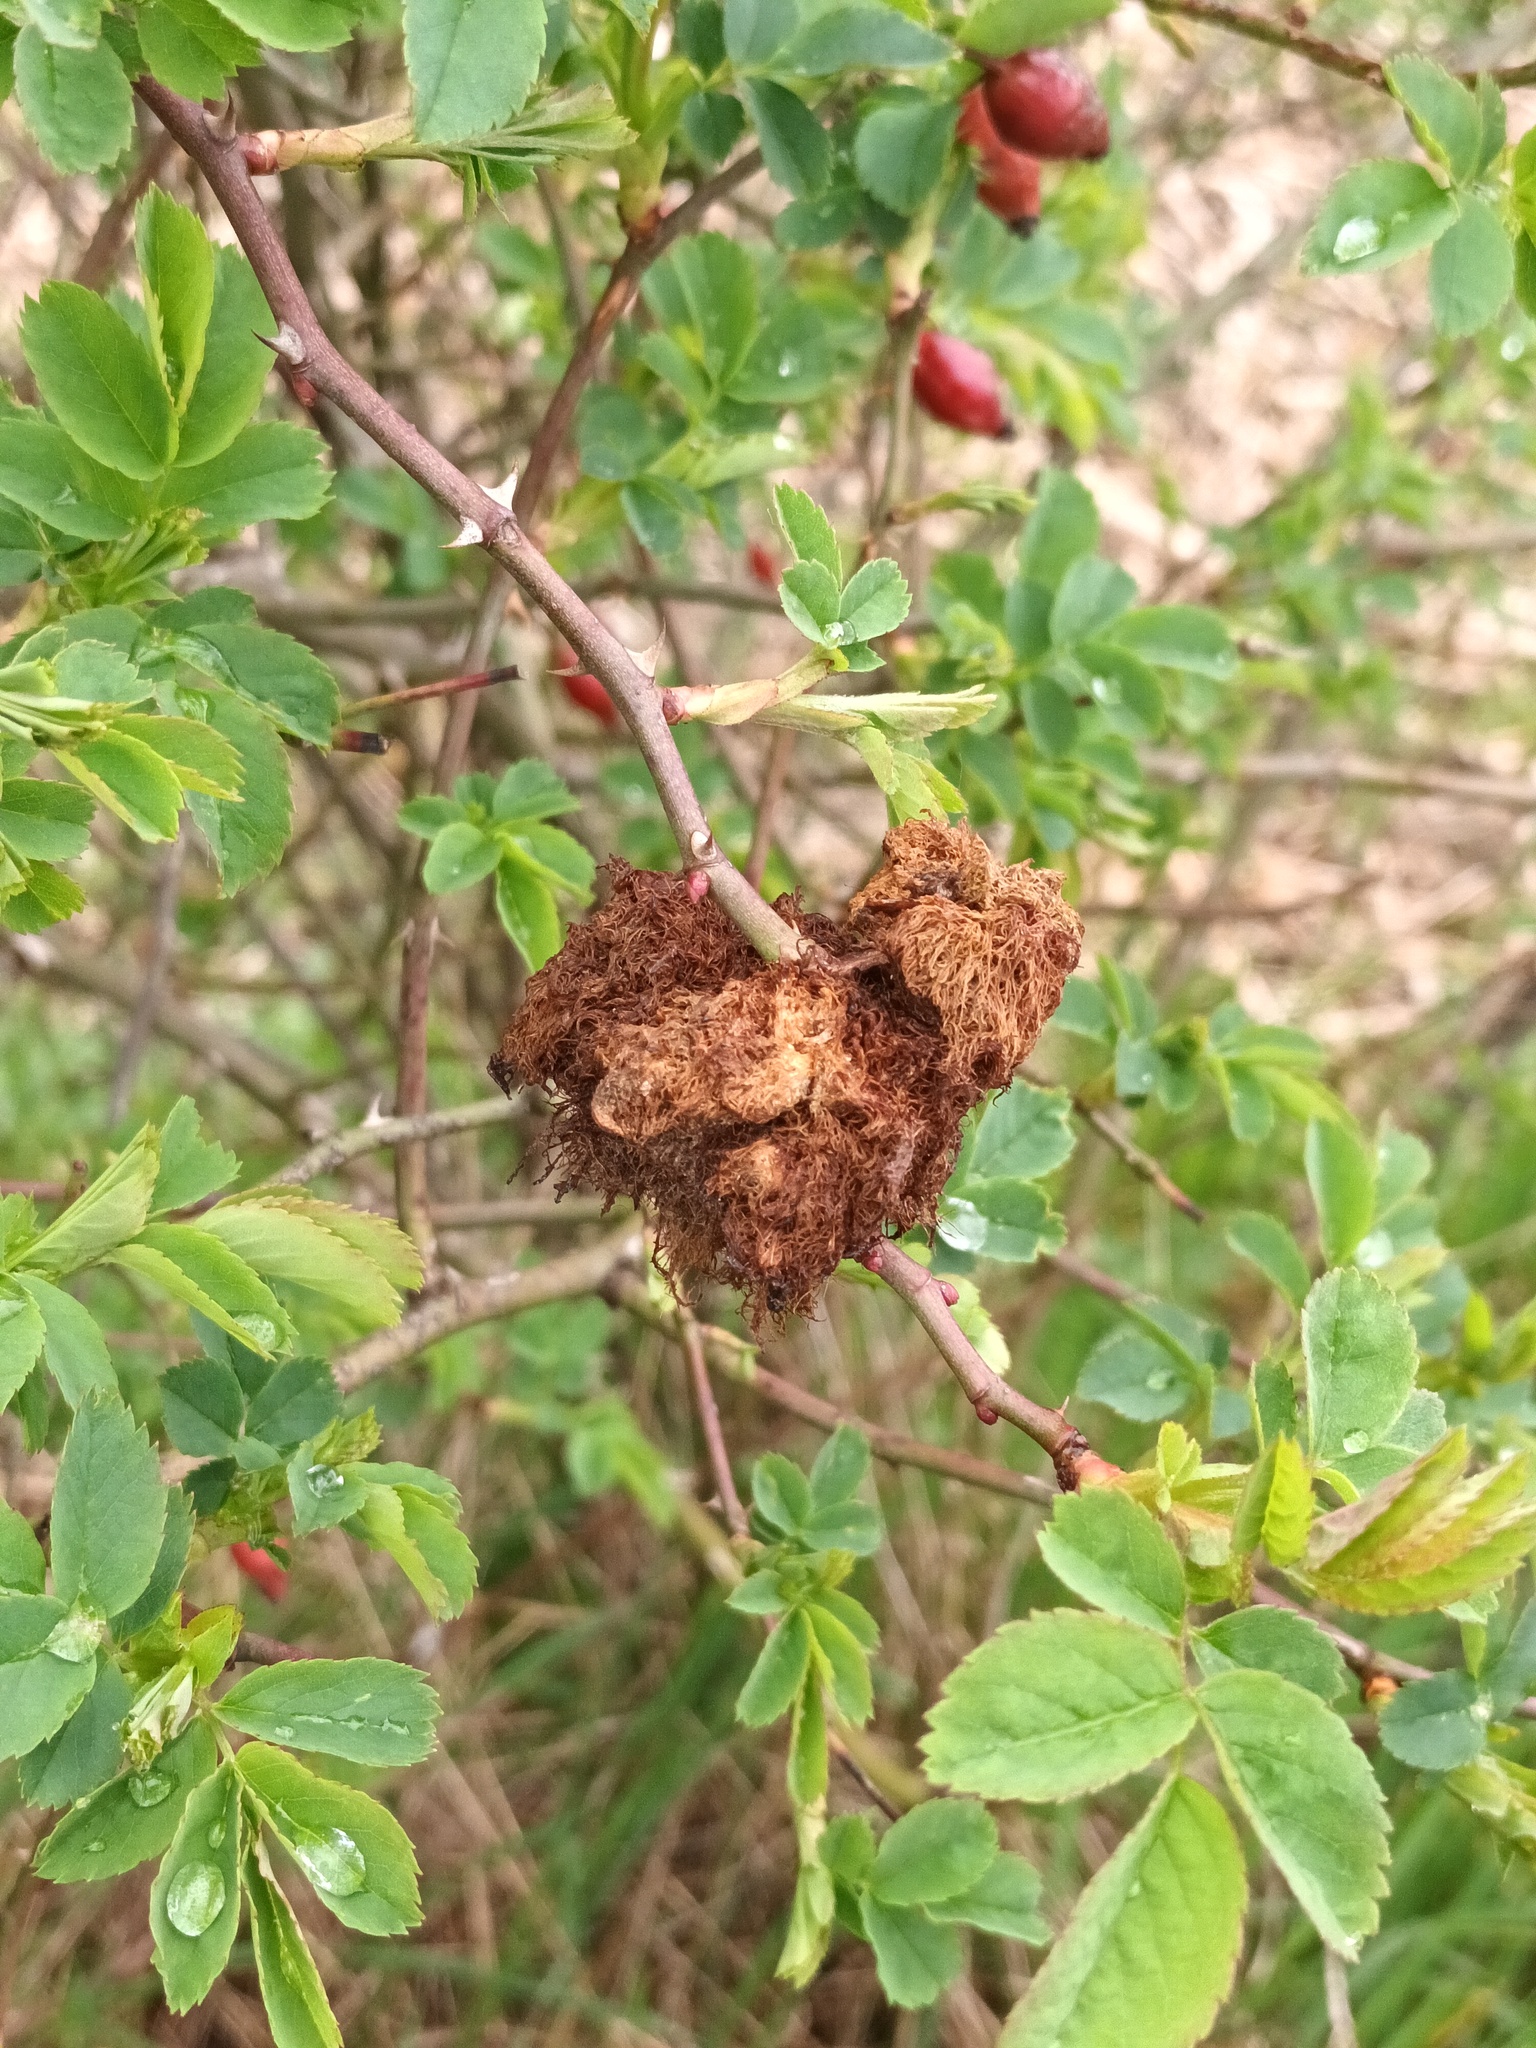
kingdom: Animalia
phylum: Arthropoda
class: Insecta
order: Hymenoptera
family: Cynipidae
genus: Diplolepis
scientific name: Diplolepis rosae
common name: Bedeguar gall
